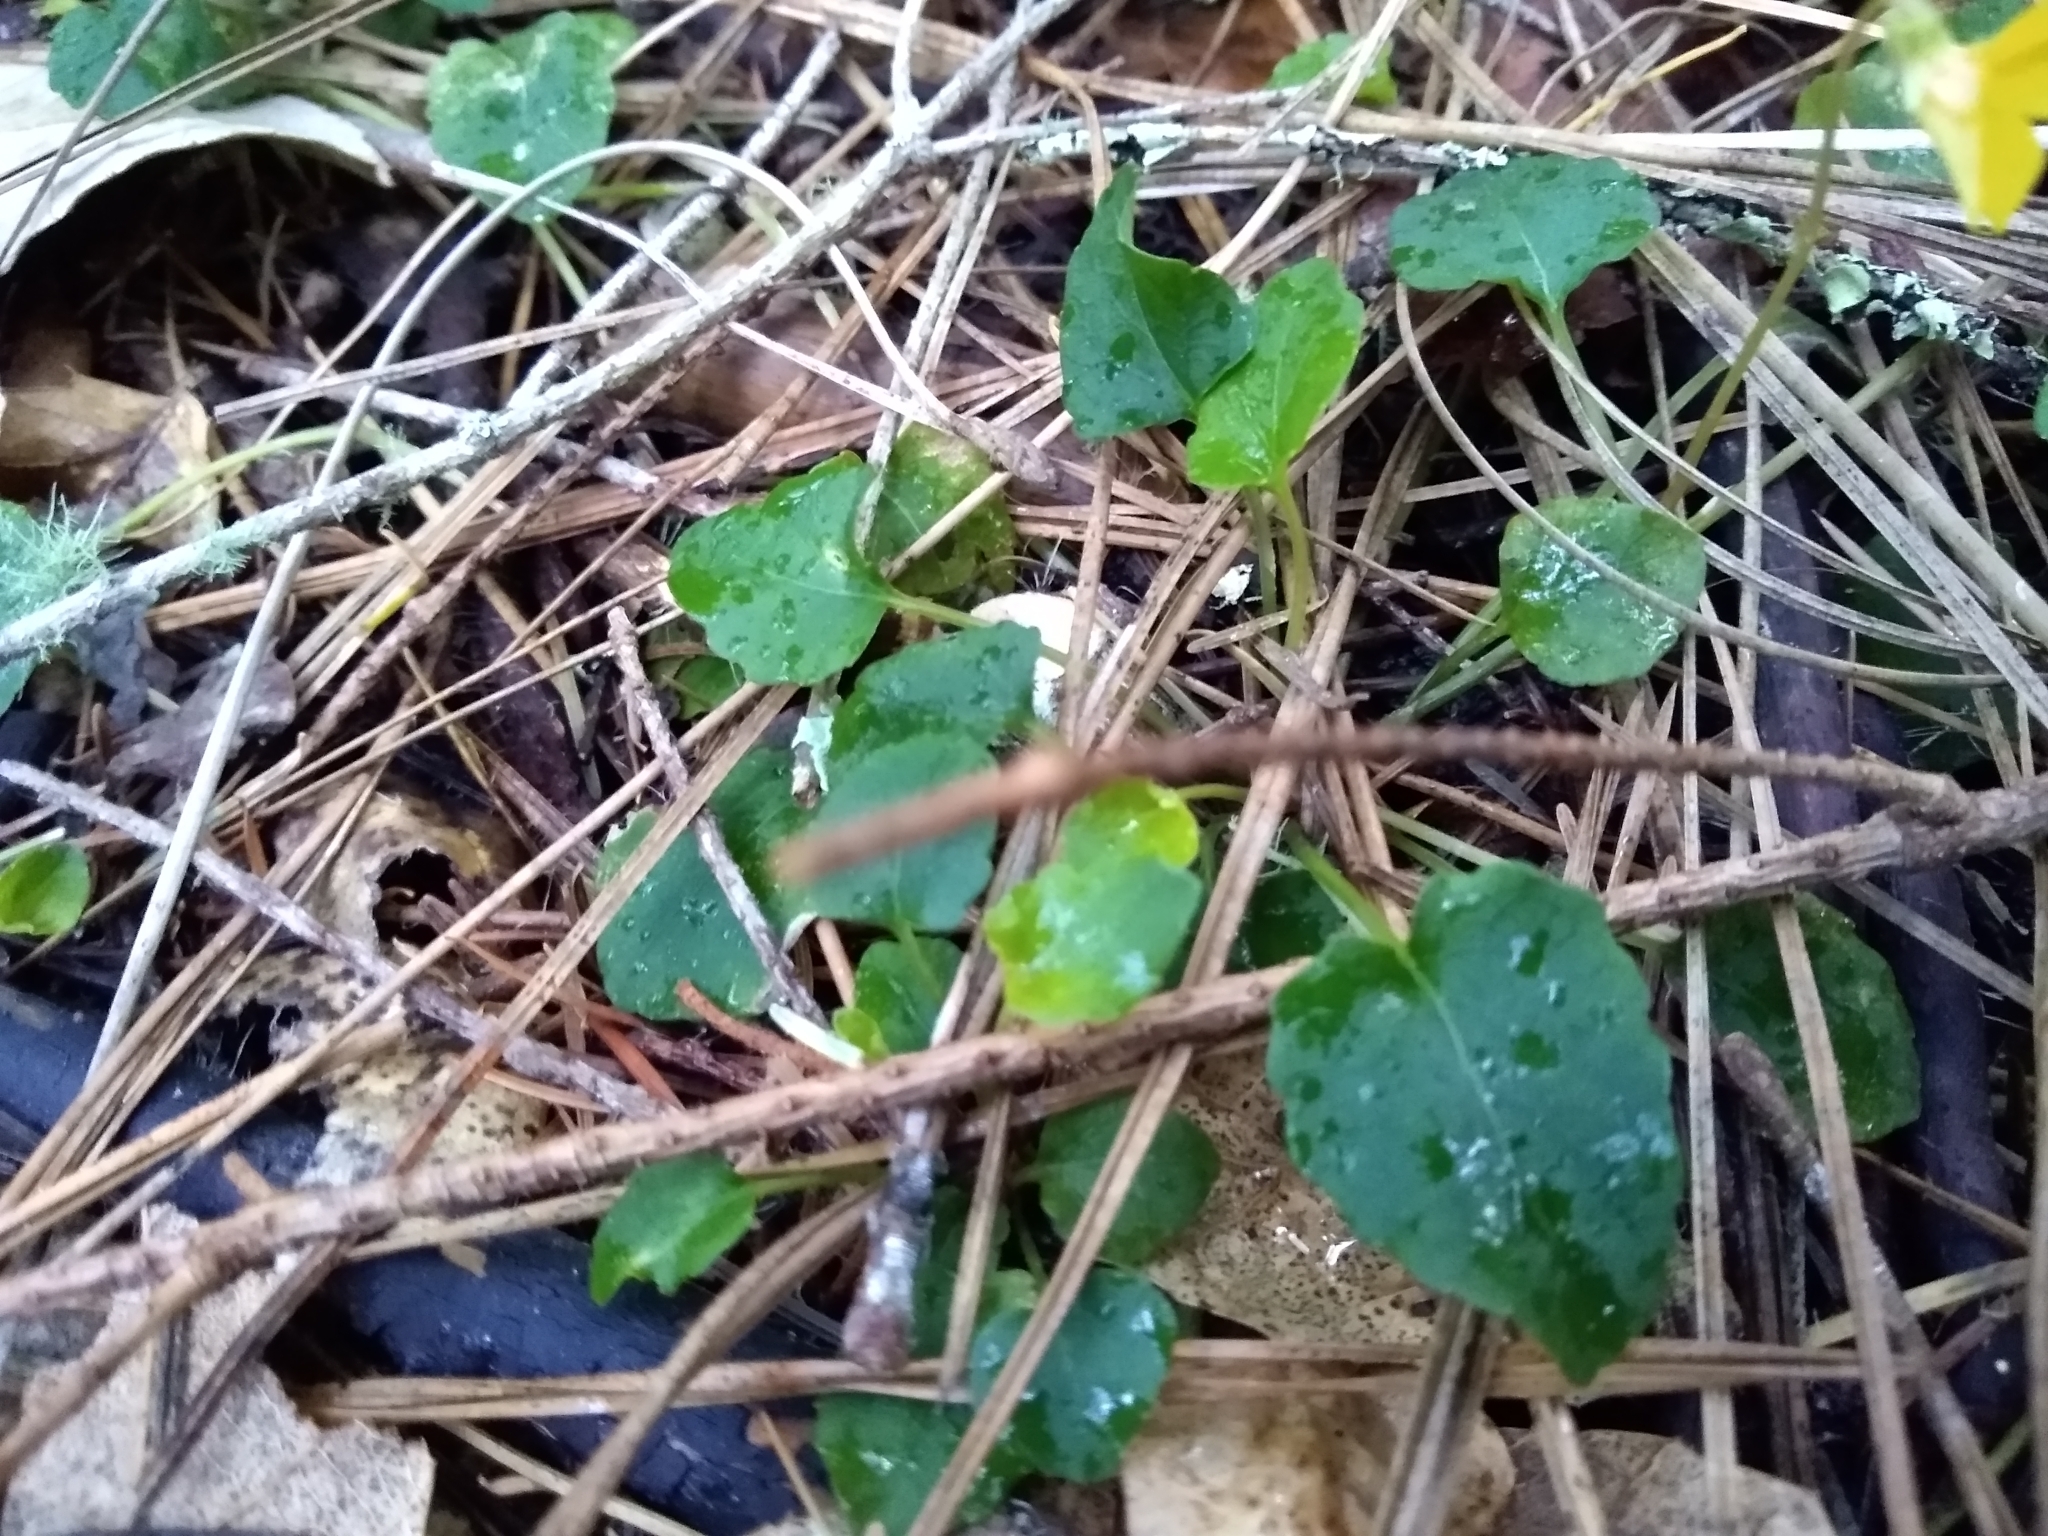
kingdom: Plantae
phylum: Tracheophyta
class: Magnoliopsida
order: Malpighiales
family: Violaceae
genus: Viola
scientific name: Viola sempervirens
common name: Evergreen violet
